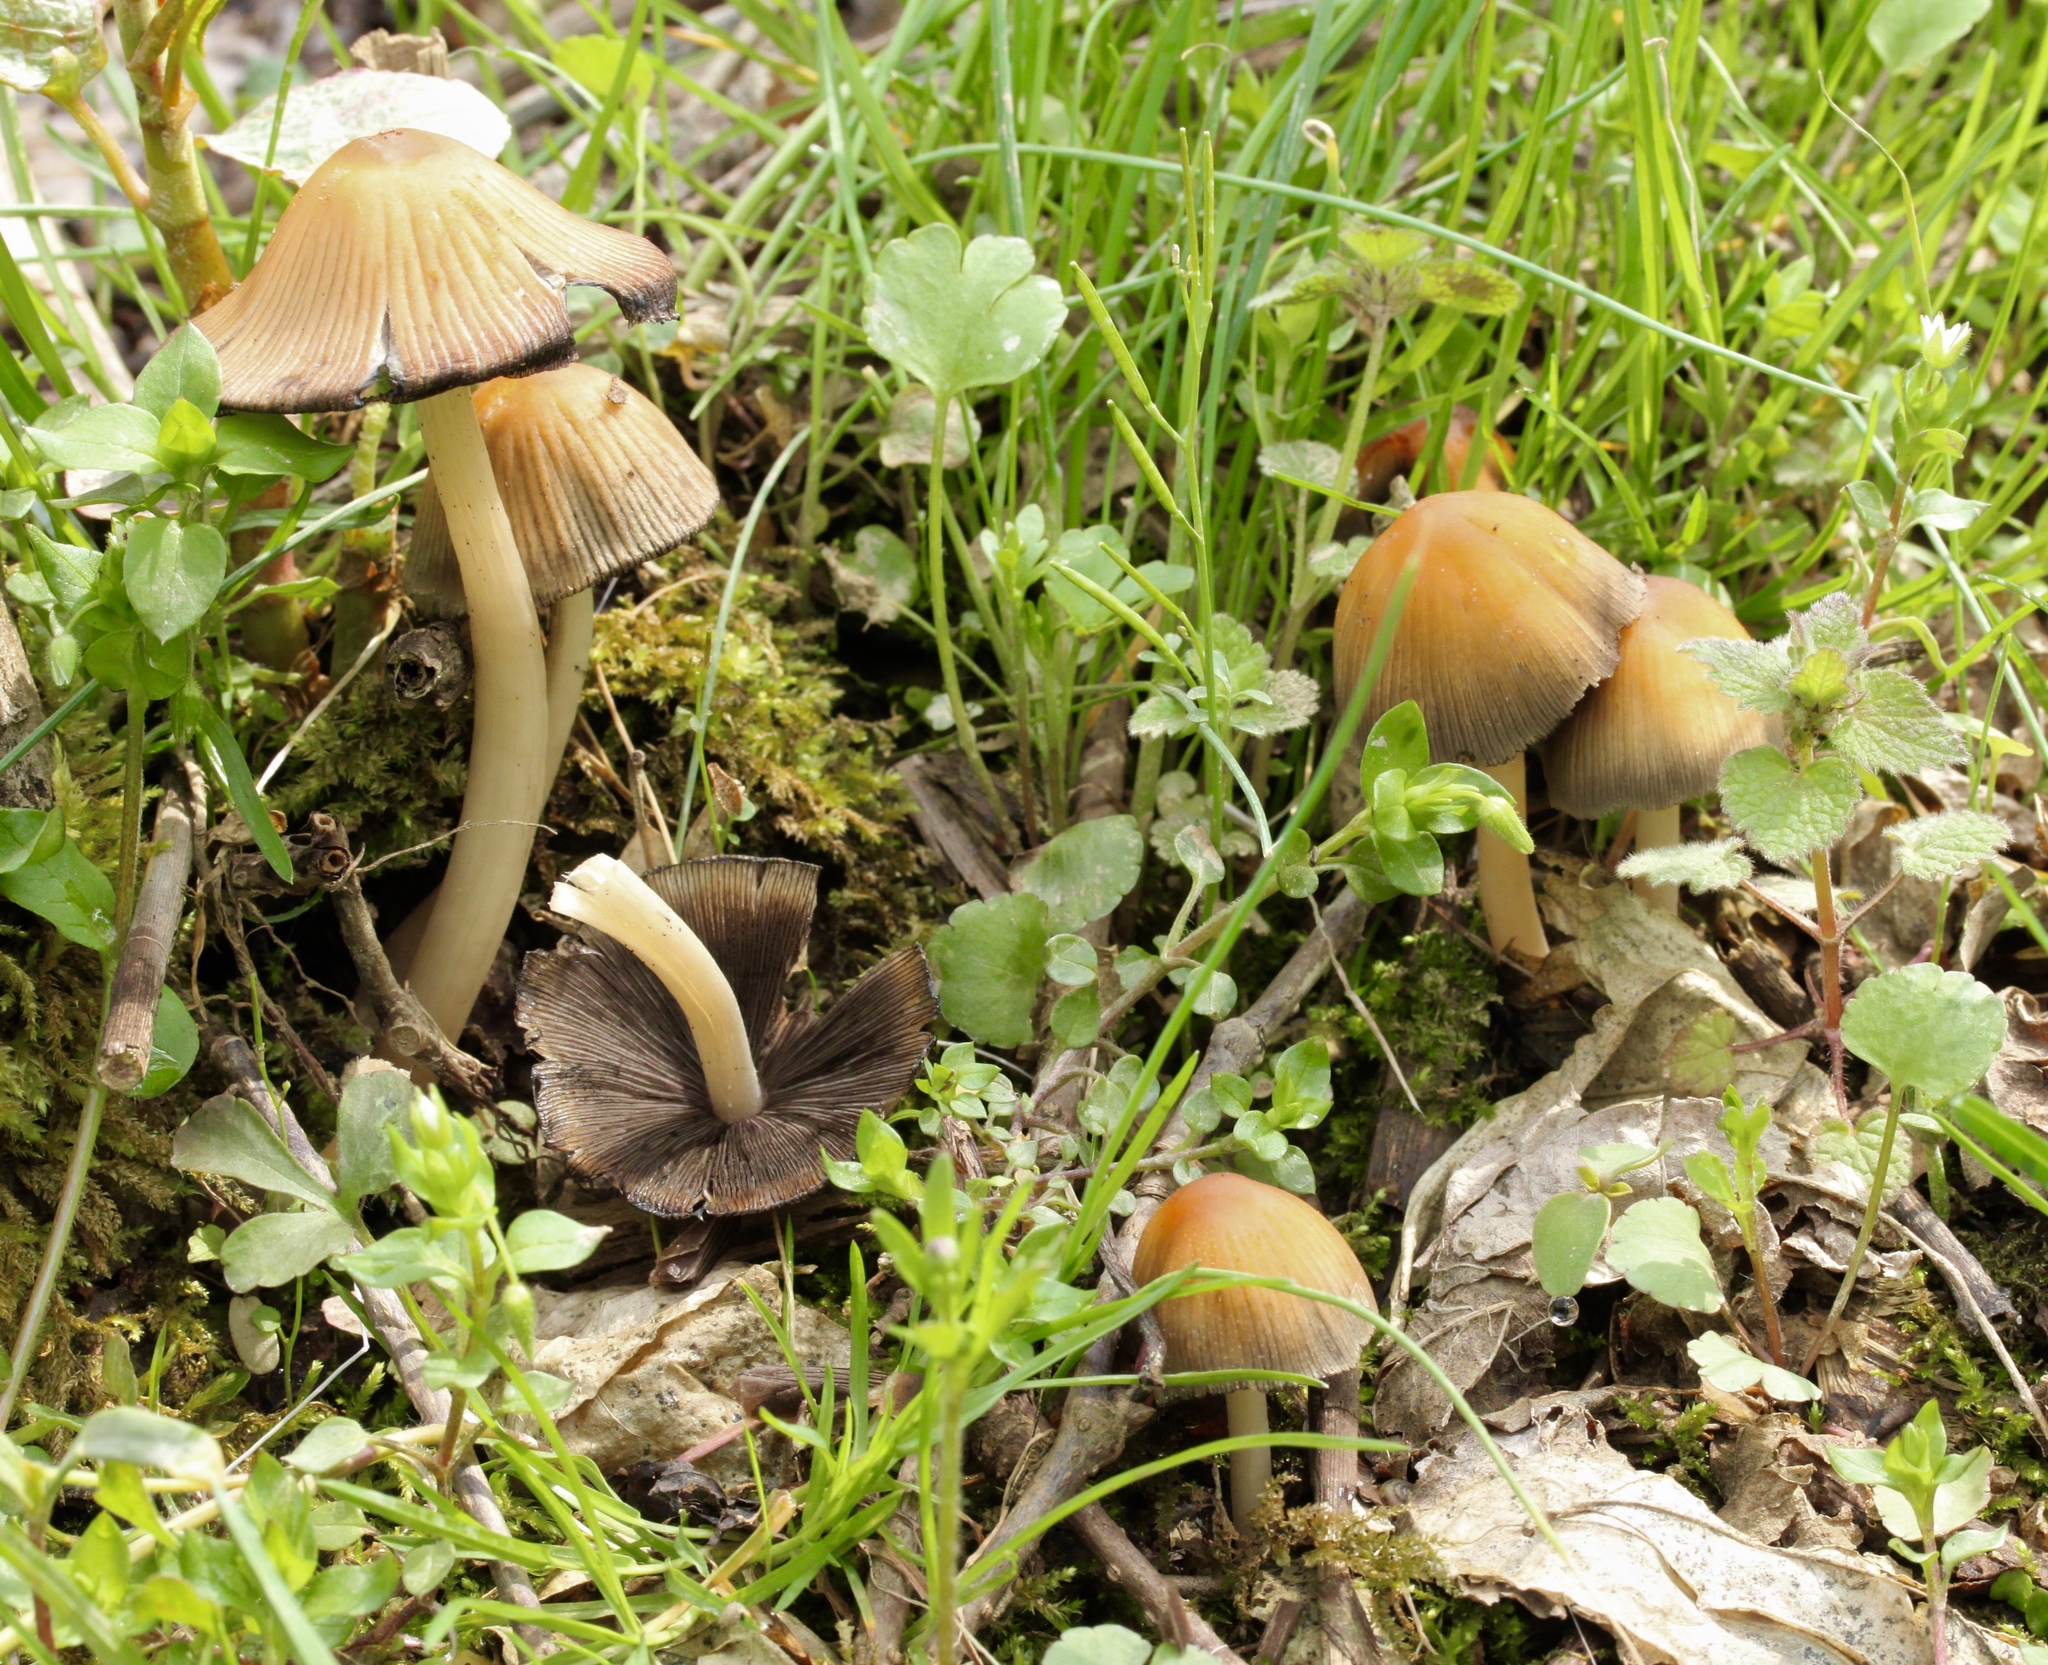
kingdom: Fungi
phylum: Basidiomycota
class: Agaricomycetes
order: Agaricales
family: Psathyrellaceae
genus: Coprinellus
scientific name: Coprinellus micaceus
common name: Glistening ink-cap
